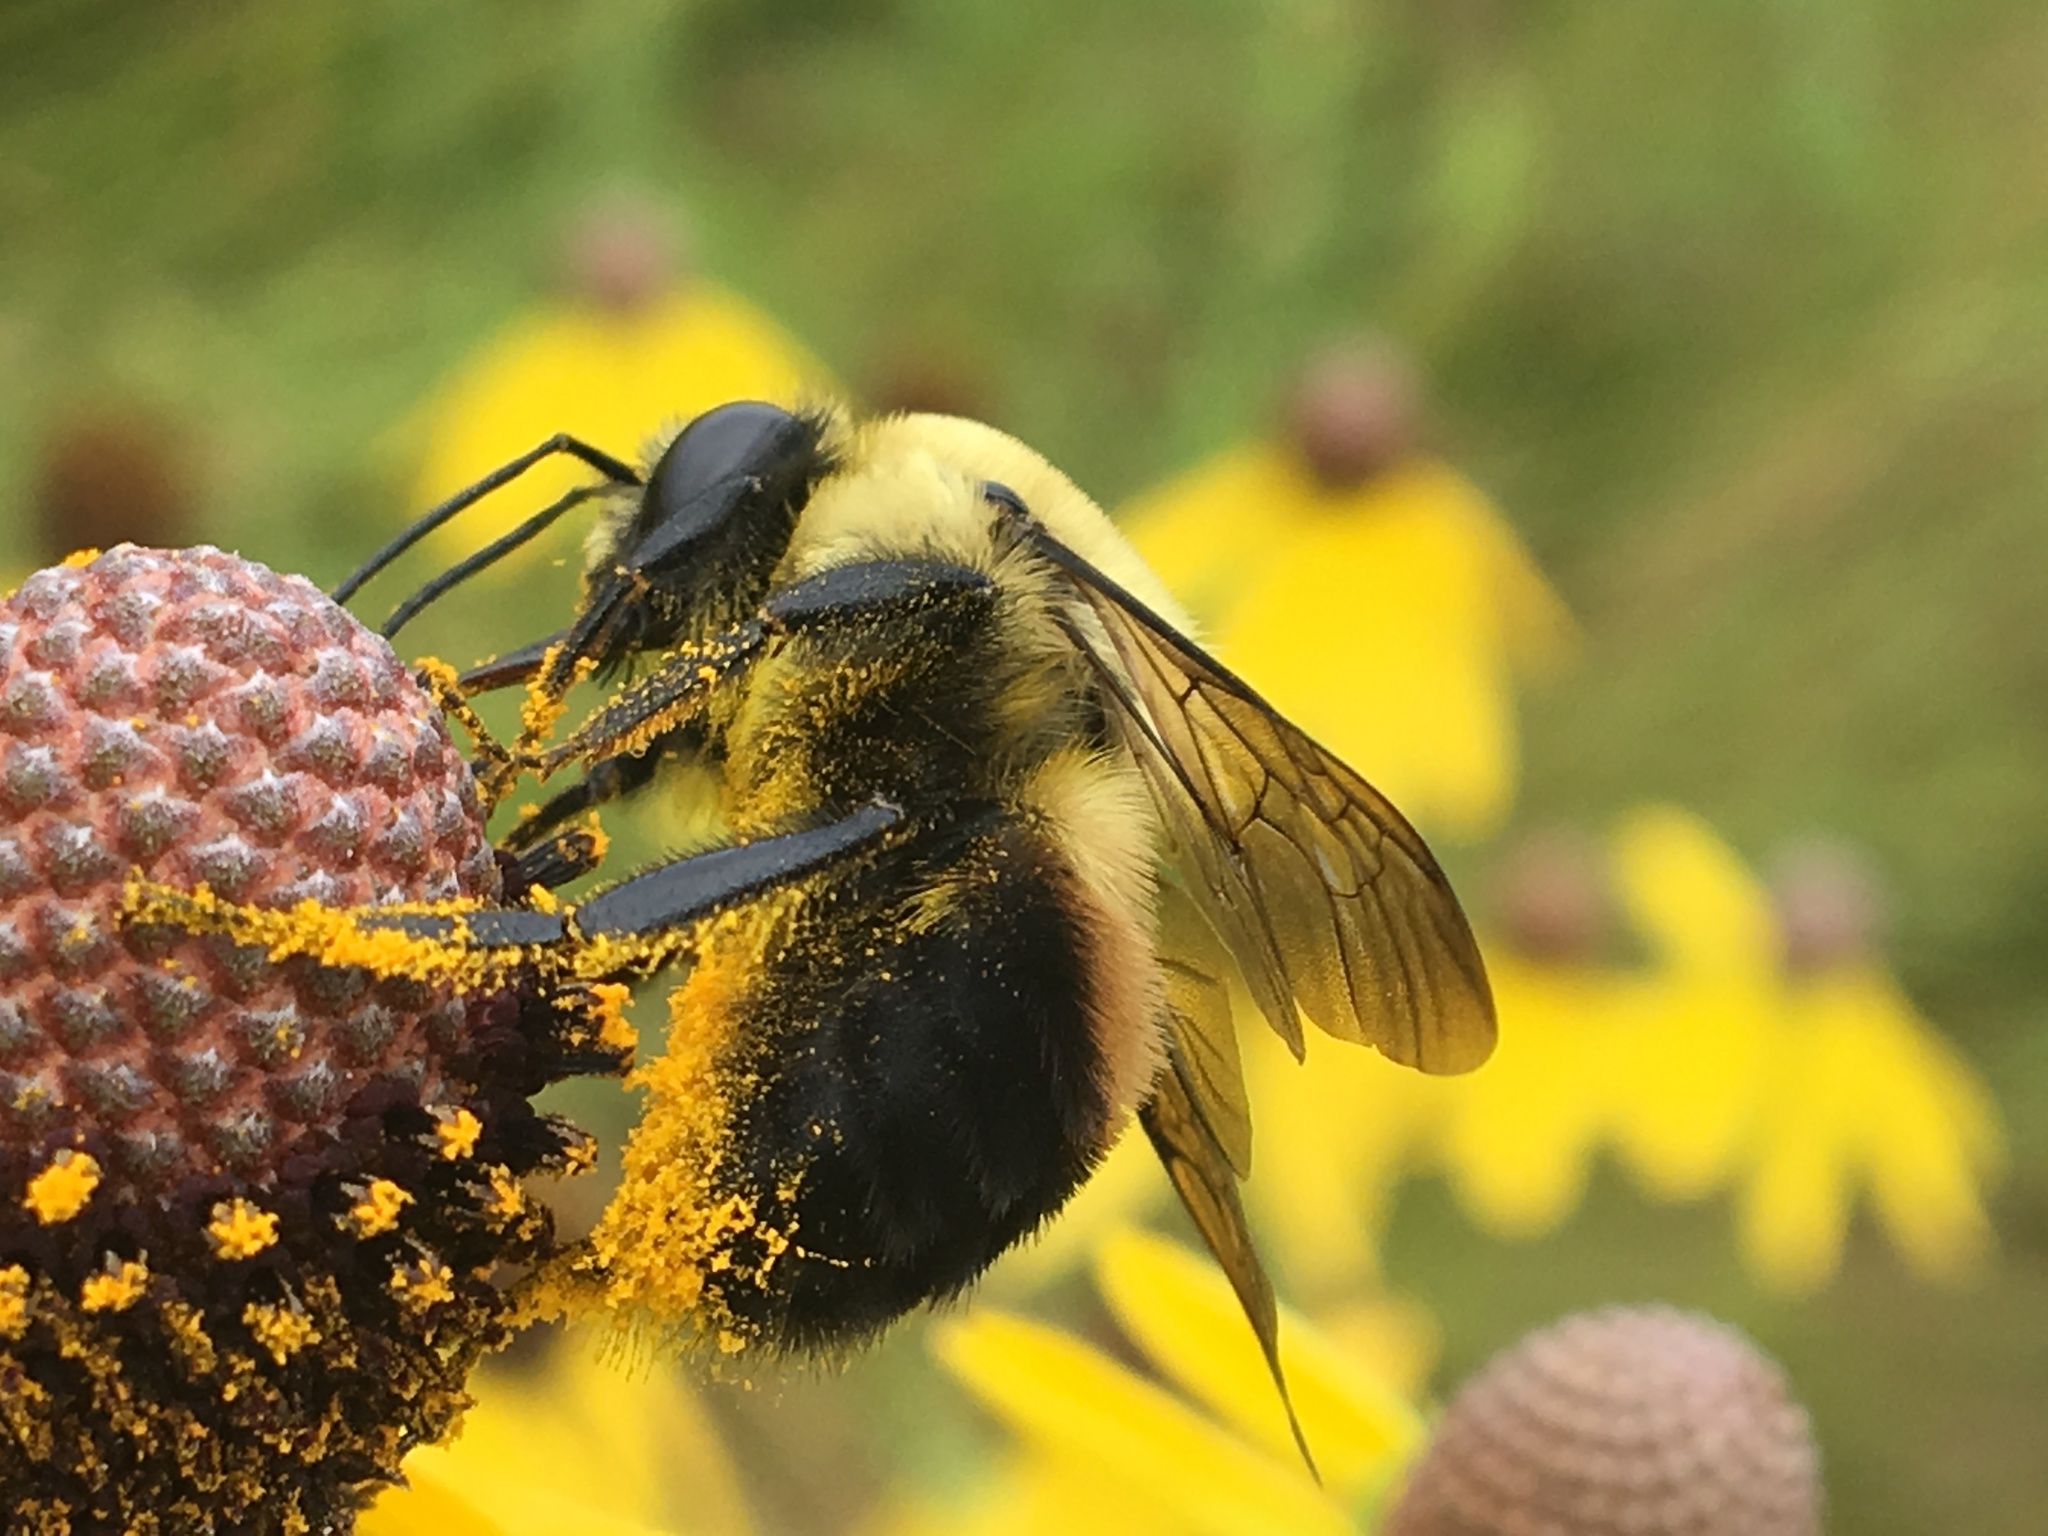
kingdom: Animalia
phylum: Arthropoda
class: Insecta
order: Hymenoptera
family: Apidae
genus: Bombus
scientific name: Bombus griseocollis
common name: Brown-belted bumble bee
